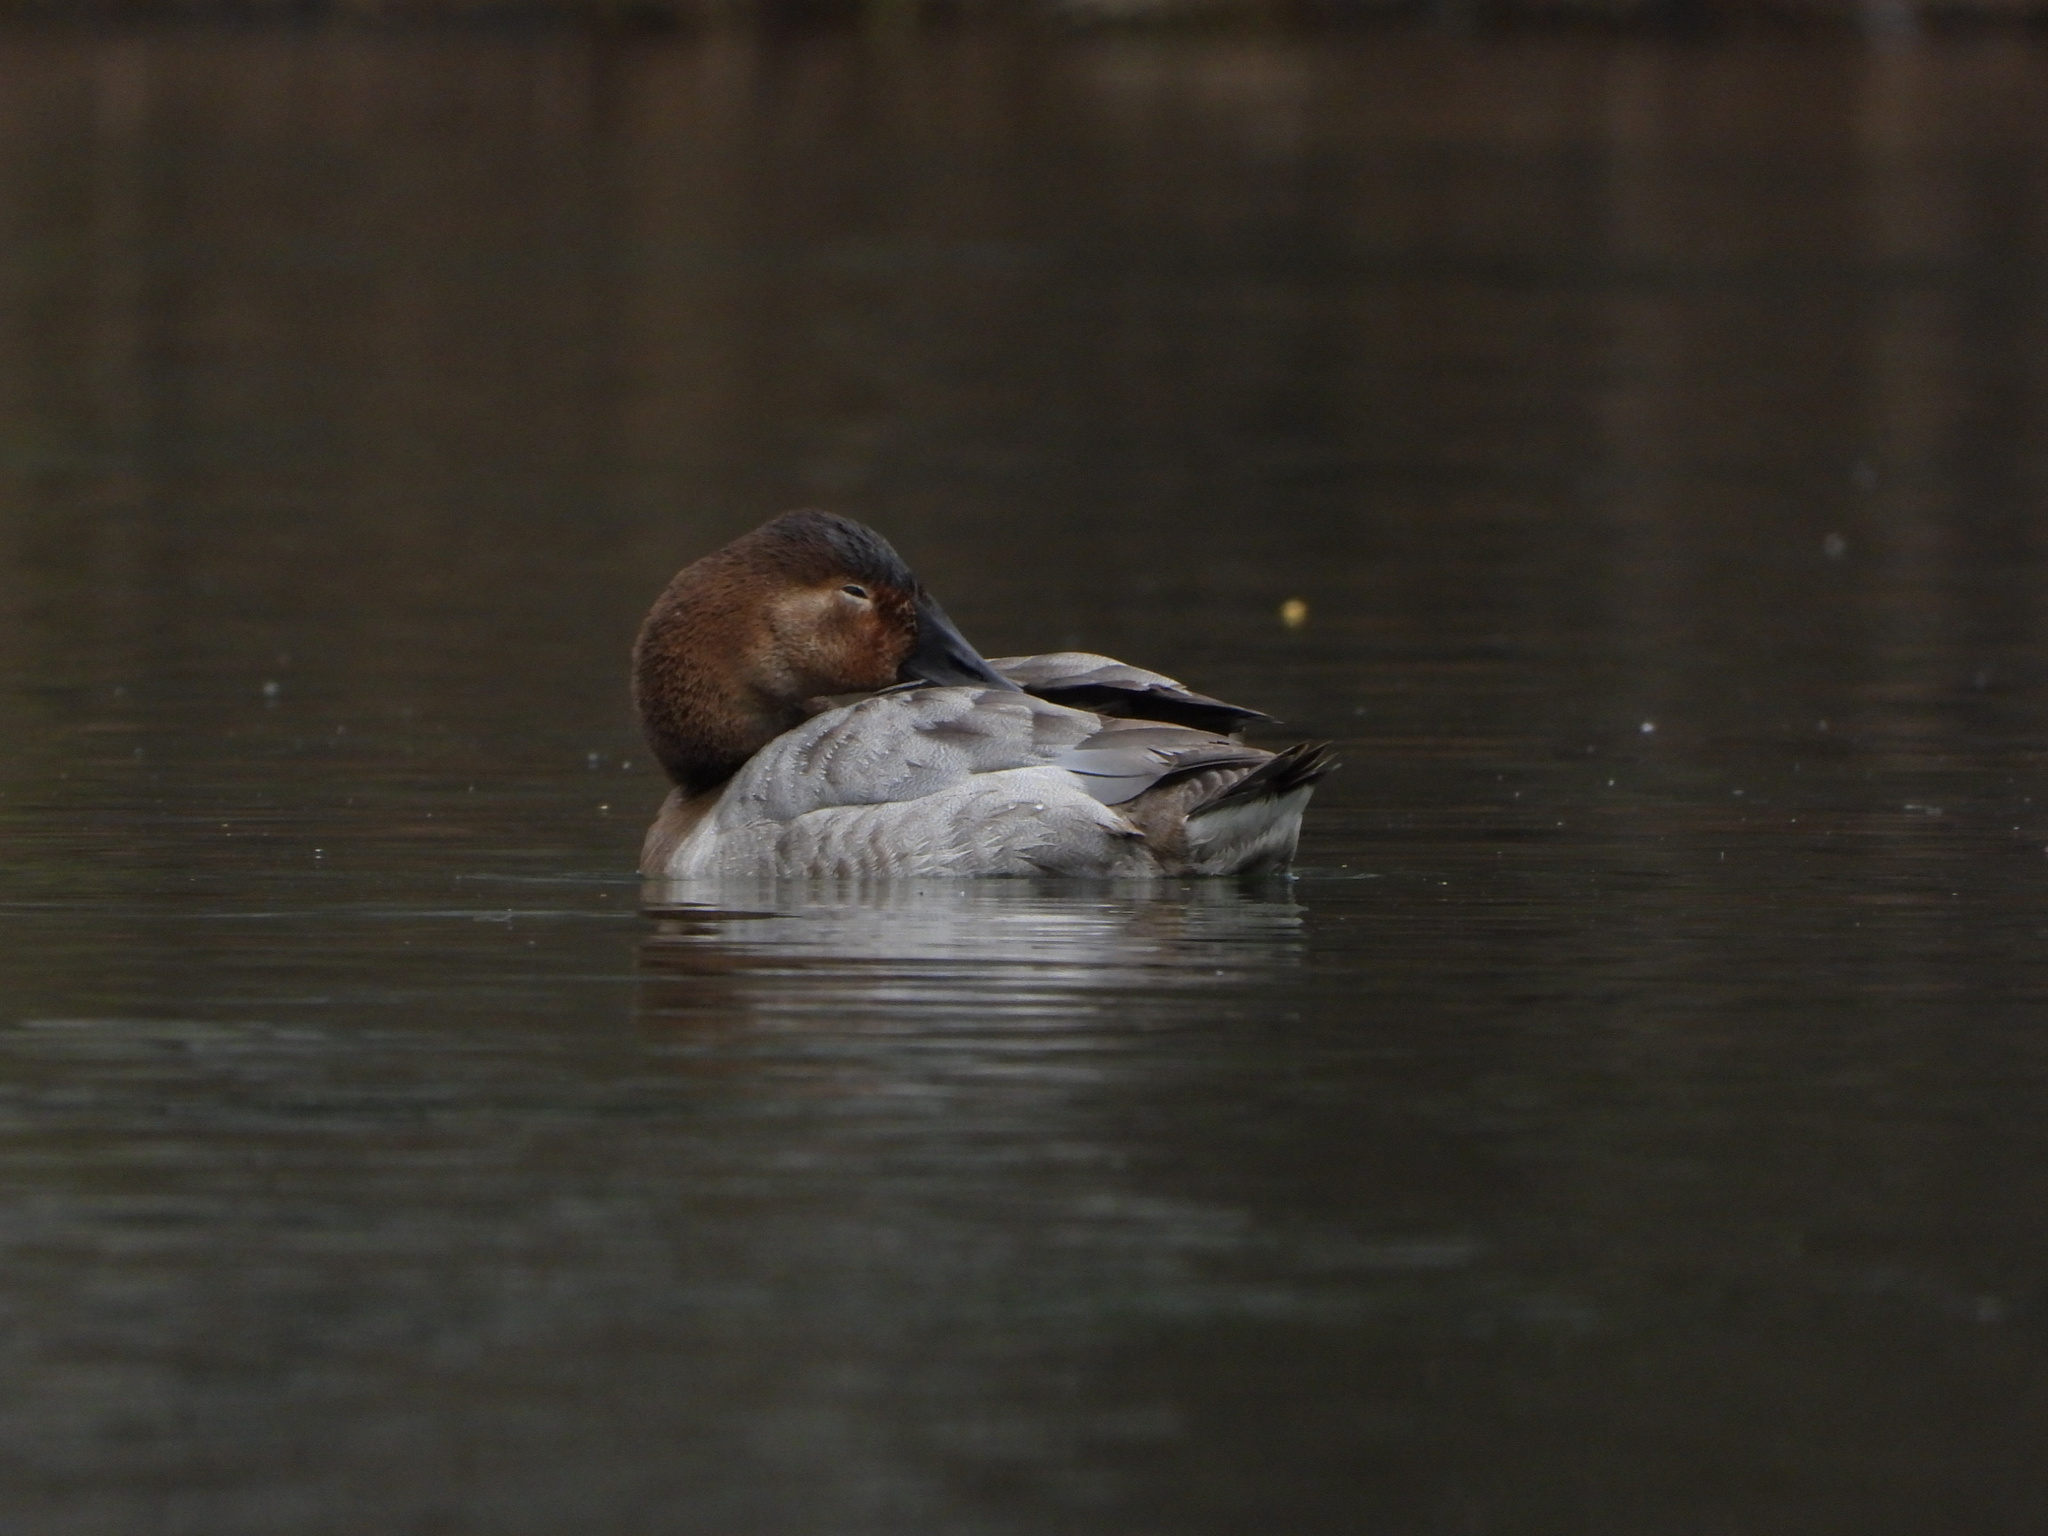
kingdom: Animalia
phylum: Chordata
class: Aves
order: Anseriformes
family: Anatidae
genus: Aythya
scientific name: Aythya valisineria
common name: Canvasback
